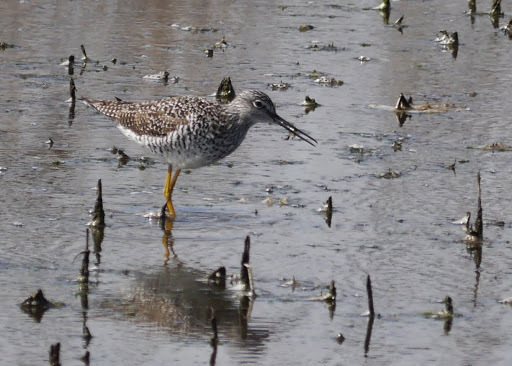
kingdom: Animalia
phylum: Chordata
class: Aves
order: Charadriiformes
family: Scolopacidae
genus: Tringa
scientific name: Tringa melanoleuca
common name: Greater yellowlegs
